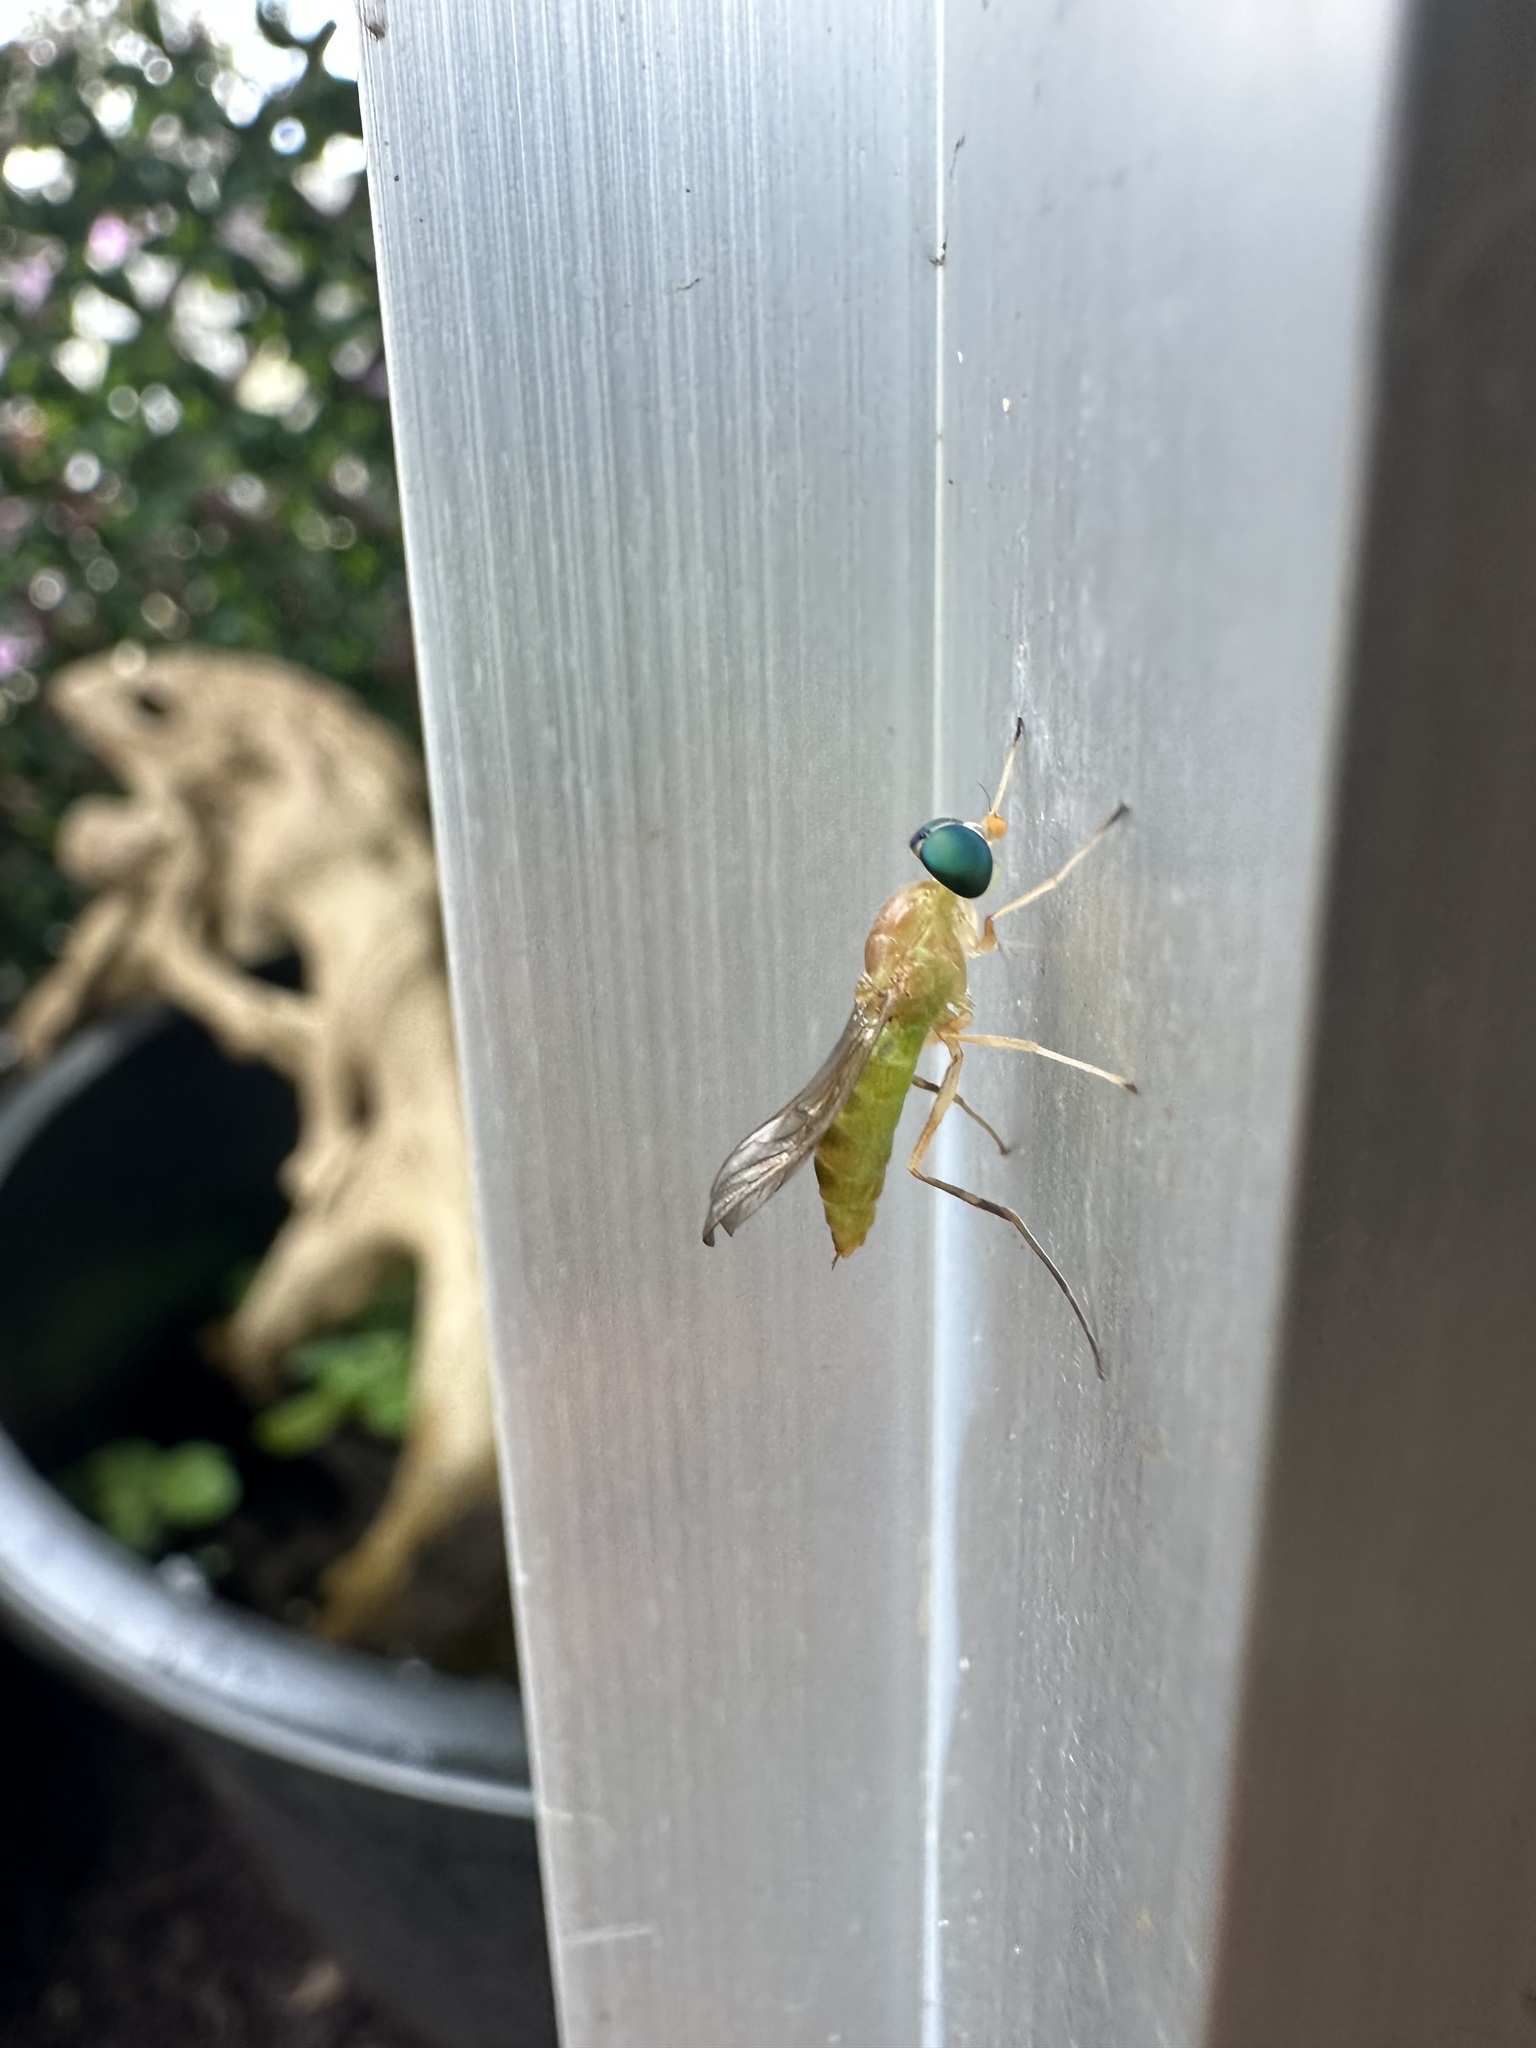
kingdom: Animalia
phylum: Arthropoda
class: Insecta
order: Diptera
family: Stratiomyidae
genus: Ptecticus
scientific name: Ptecticus trivittatus
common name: Compost fly
